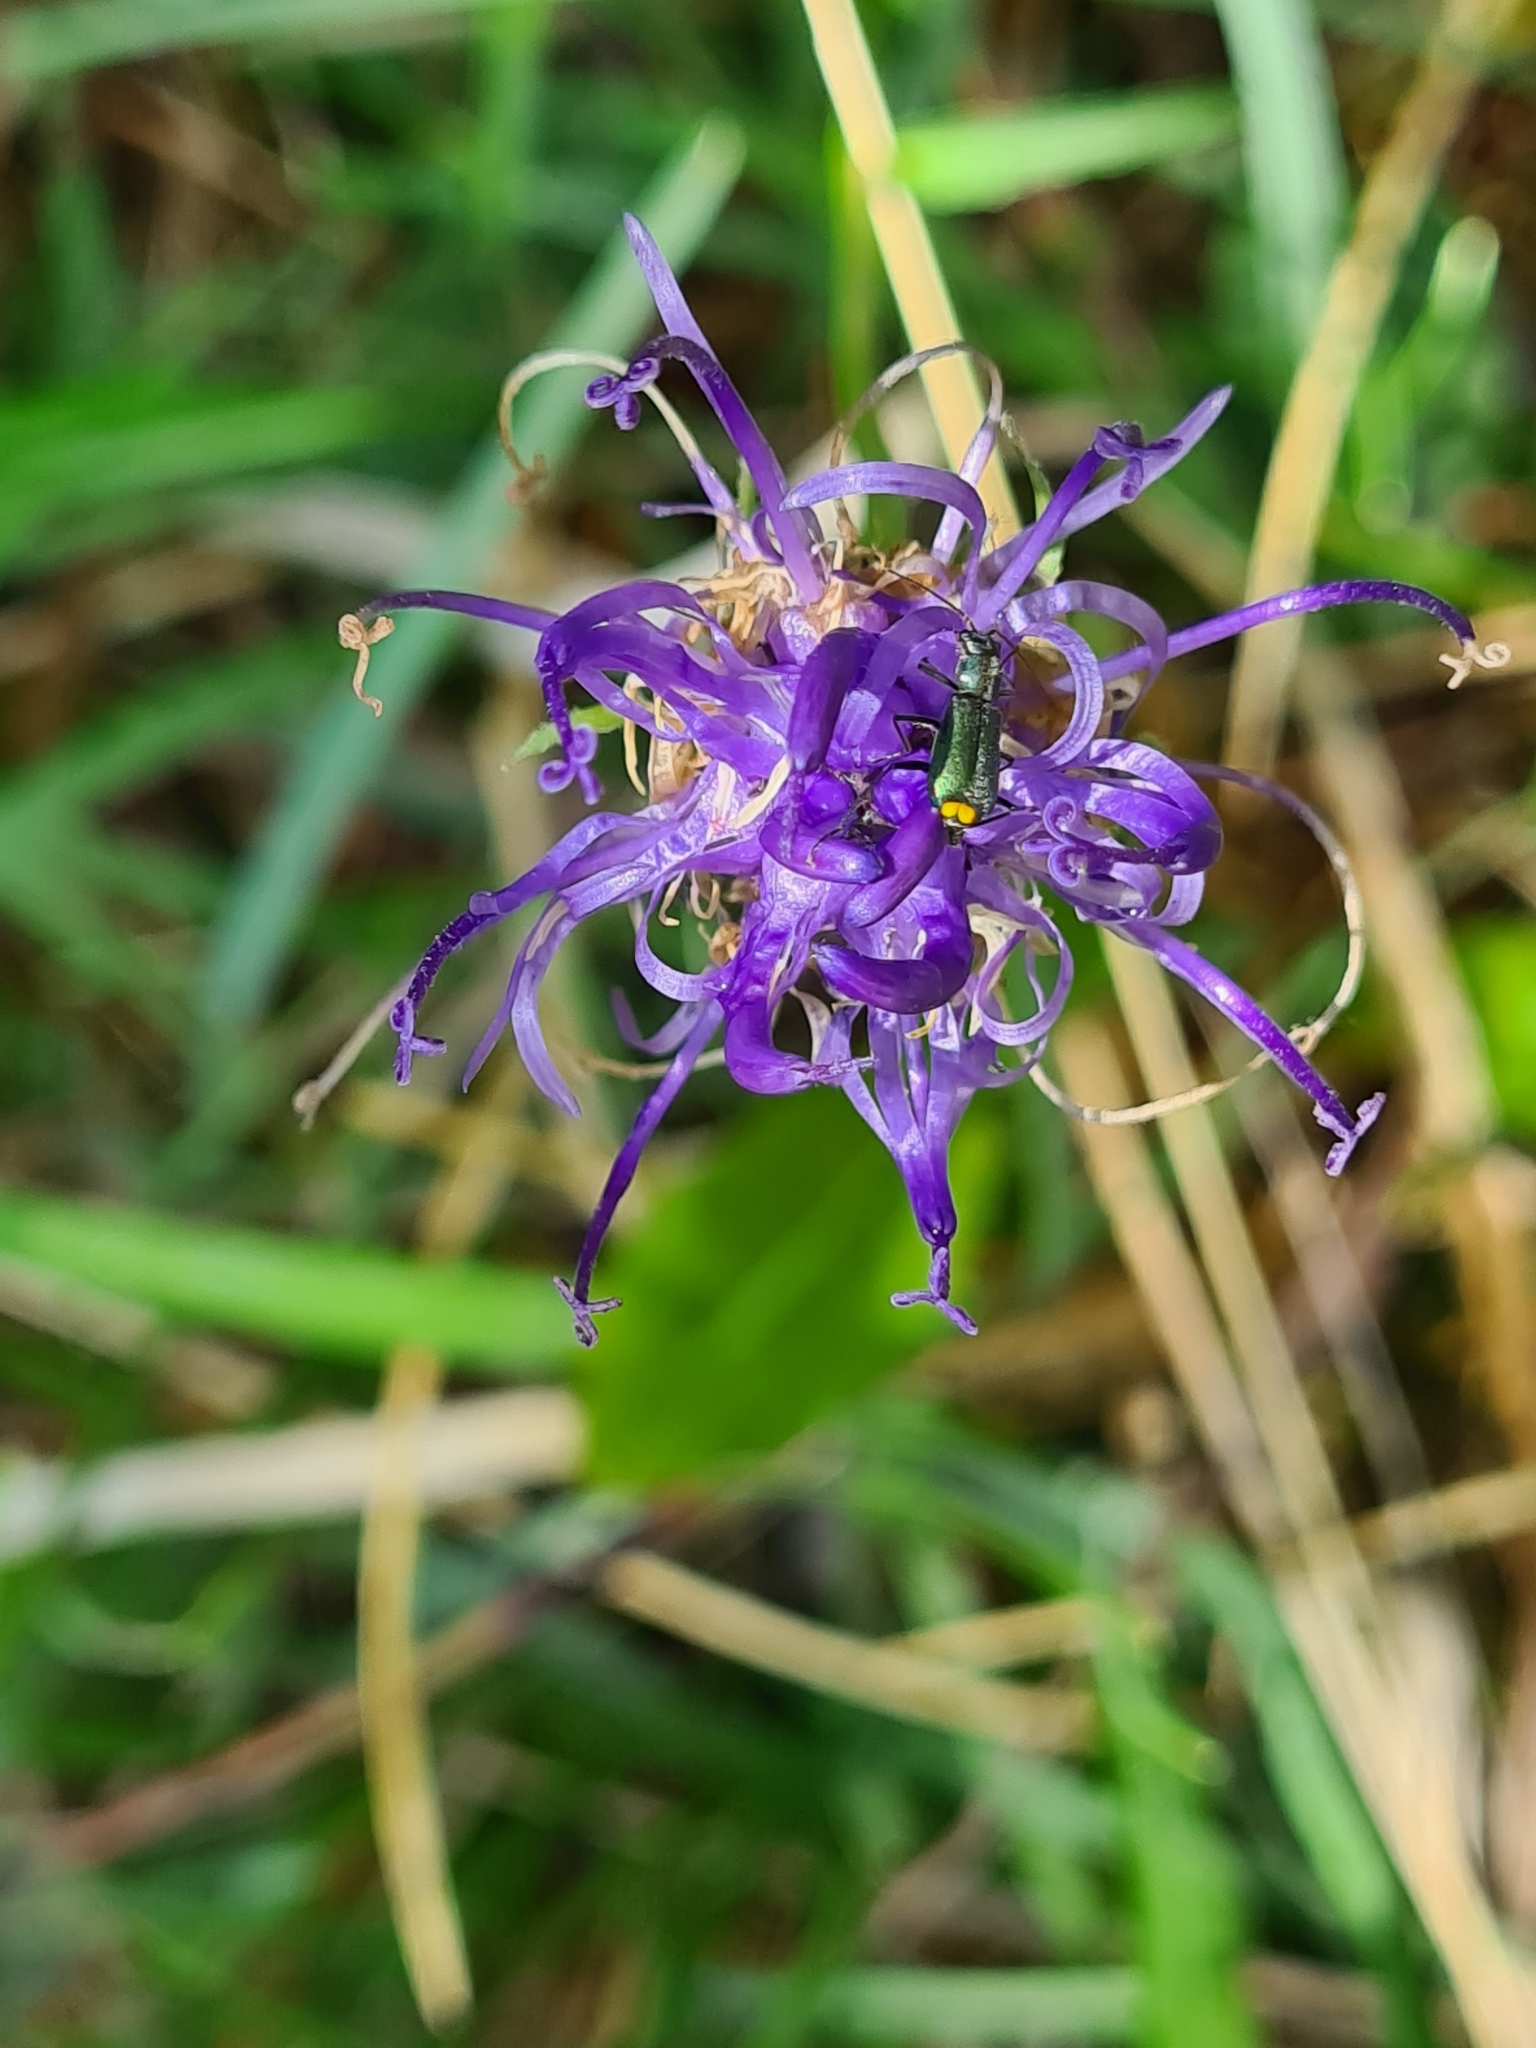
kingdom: Plantae
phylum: Tracheophyta
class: Magnoliopsida
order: Asterales
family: Campanulaceae
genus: Phyteuma
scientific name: Phyteuma orbiculare
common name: Round-headed rampion
